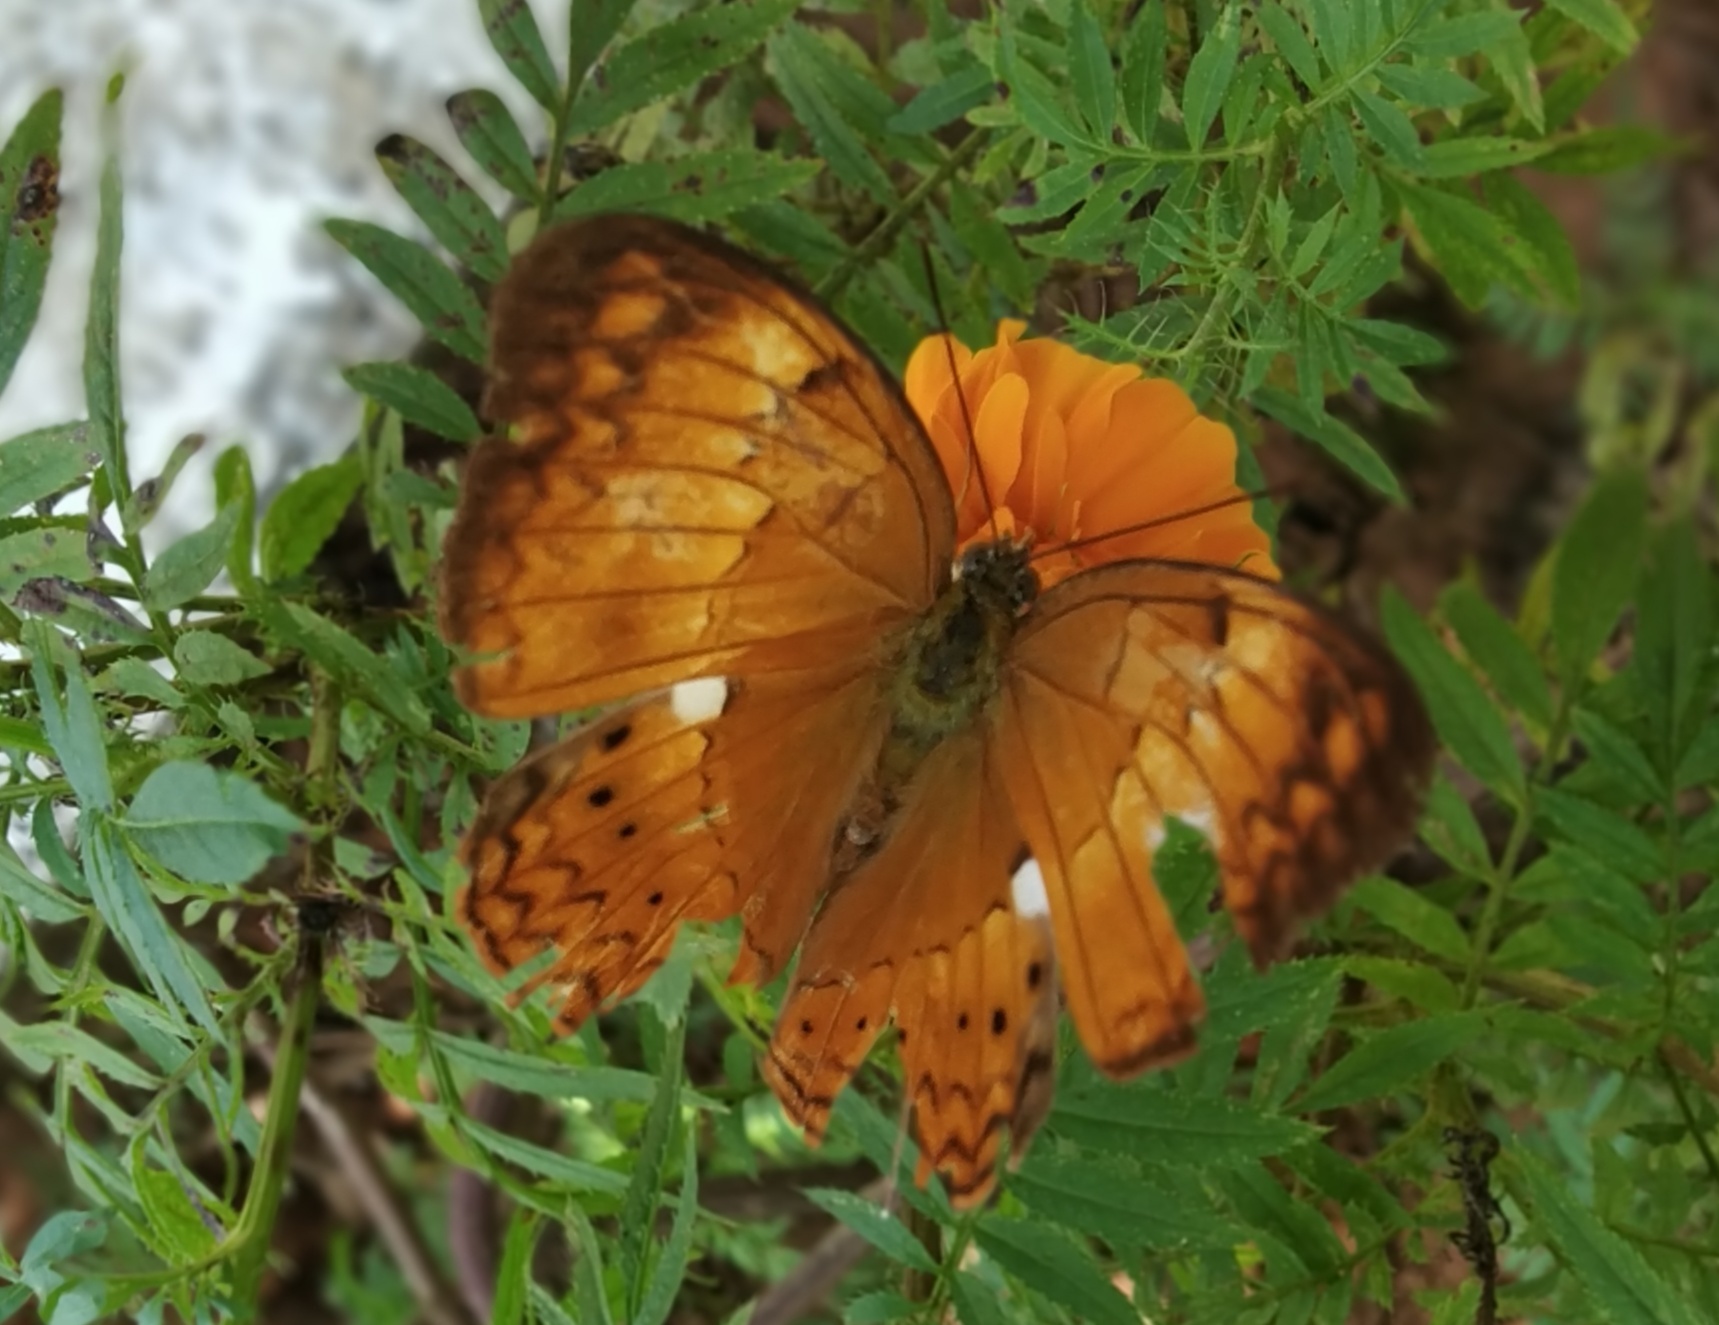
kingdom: Animalia
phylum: Arthropoda
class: Insecta
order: Lepidoptera
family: Nymphalidae
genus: Cirrochroa
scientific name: Cirrochroa thais
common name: Tamil yeoman
